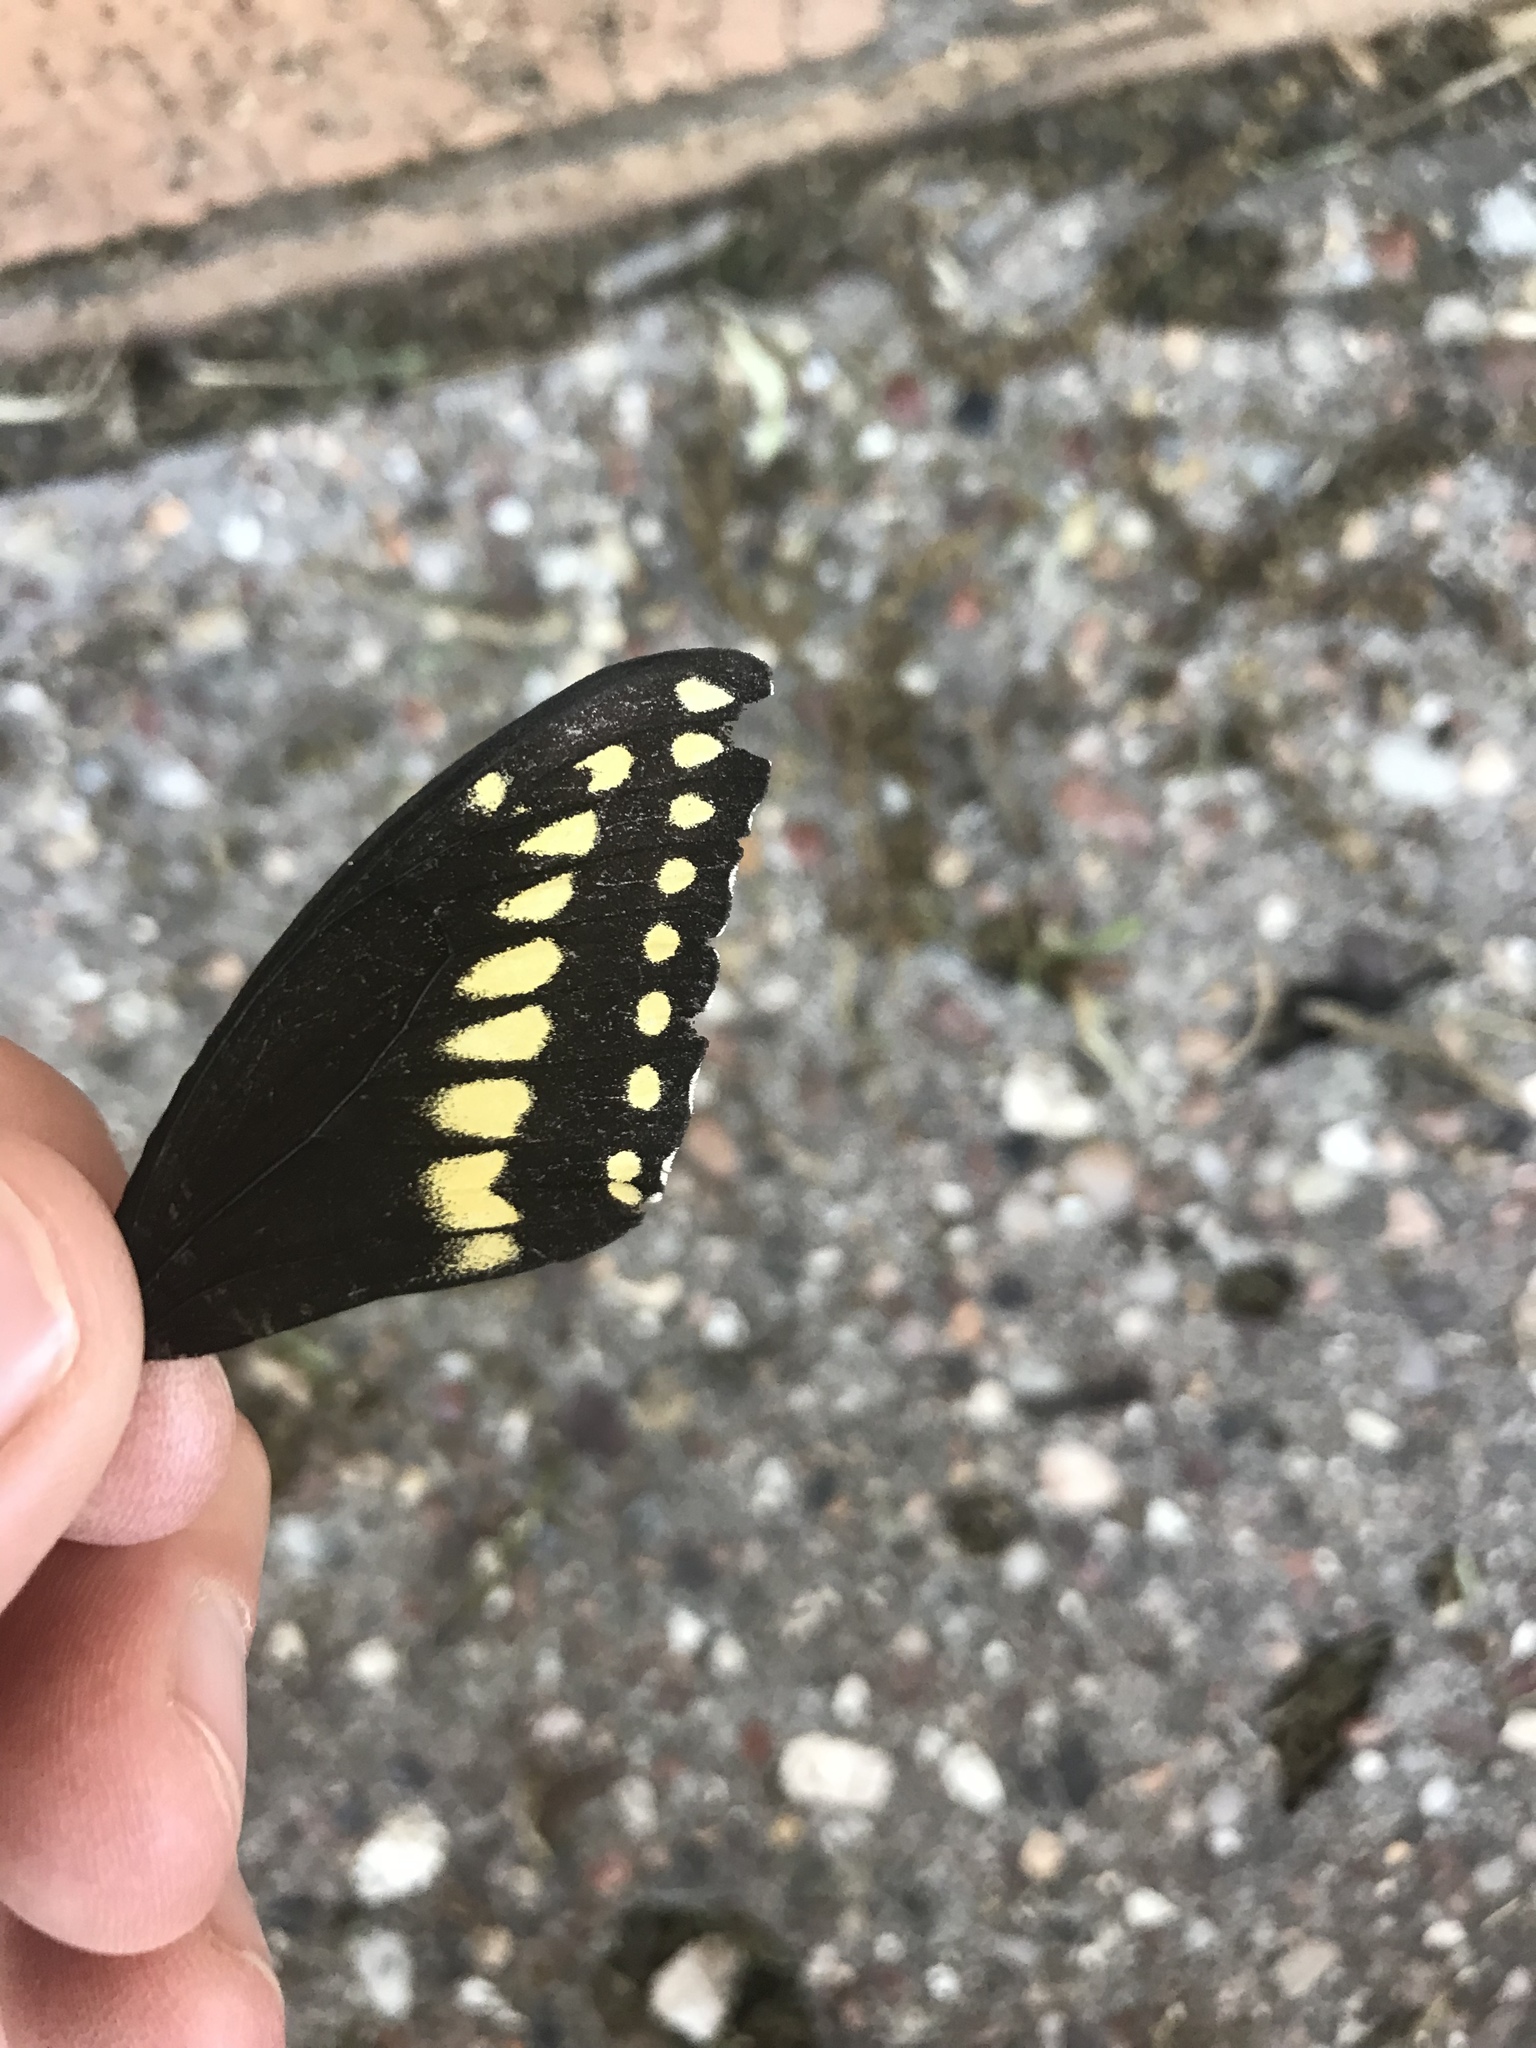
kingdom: Animalia
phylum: Arthropoda
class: Insecta
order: Lepidoptera
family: Papilionidae
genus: Papilio
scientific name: Papilio polyxenes
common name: Black swallowtail
